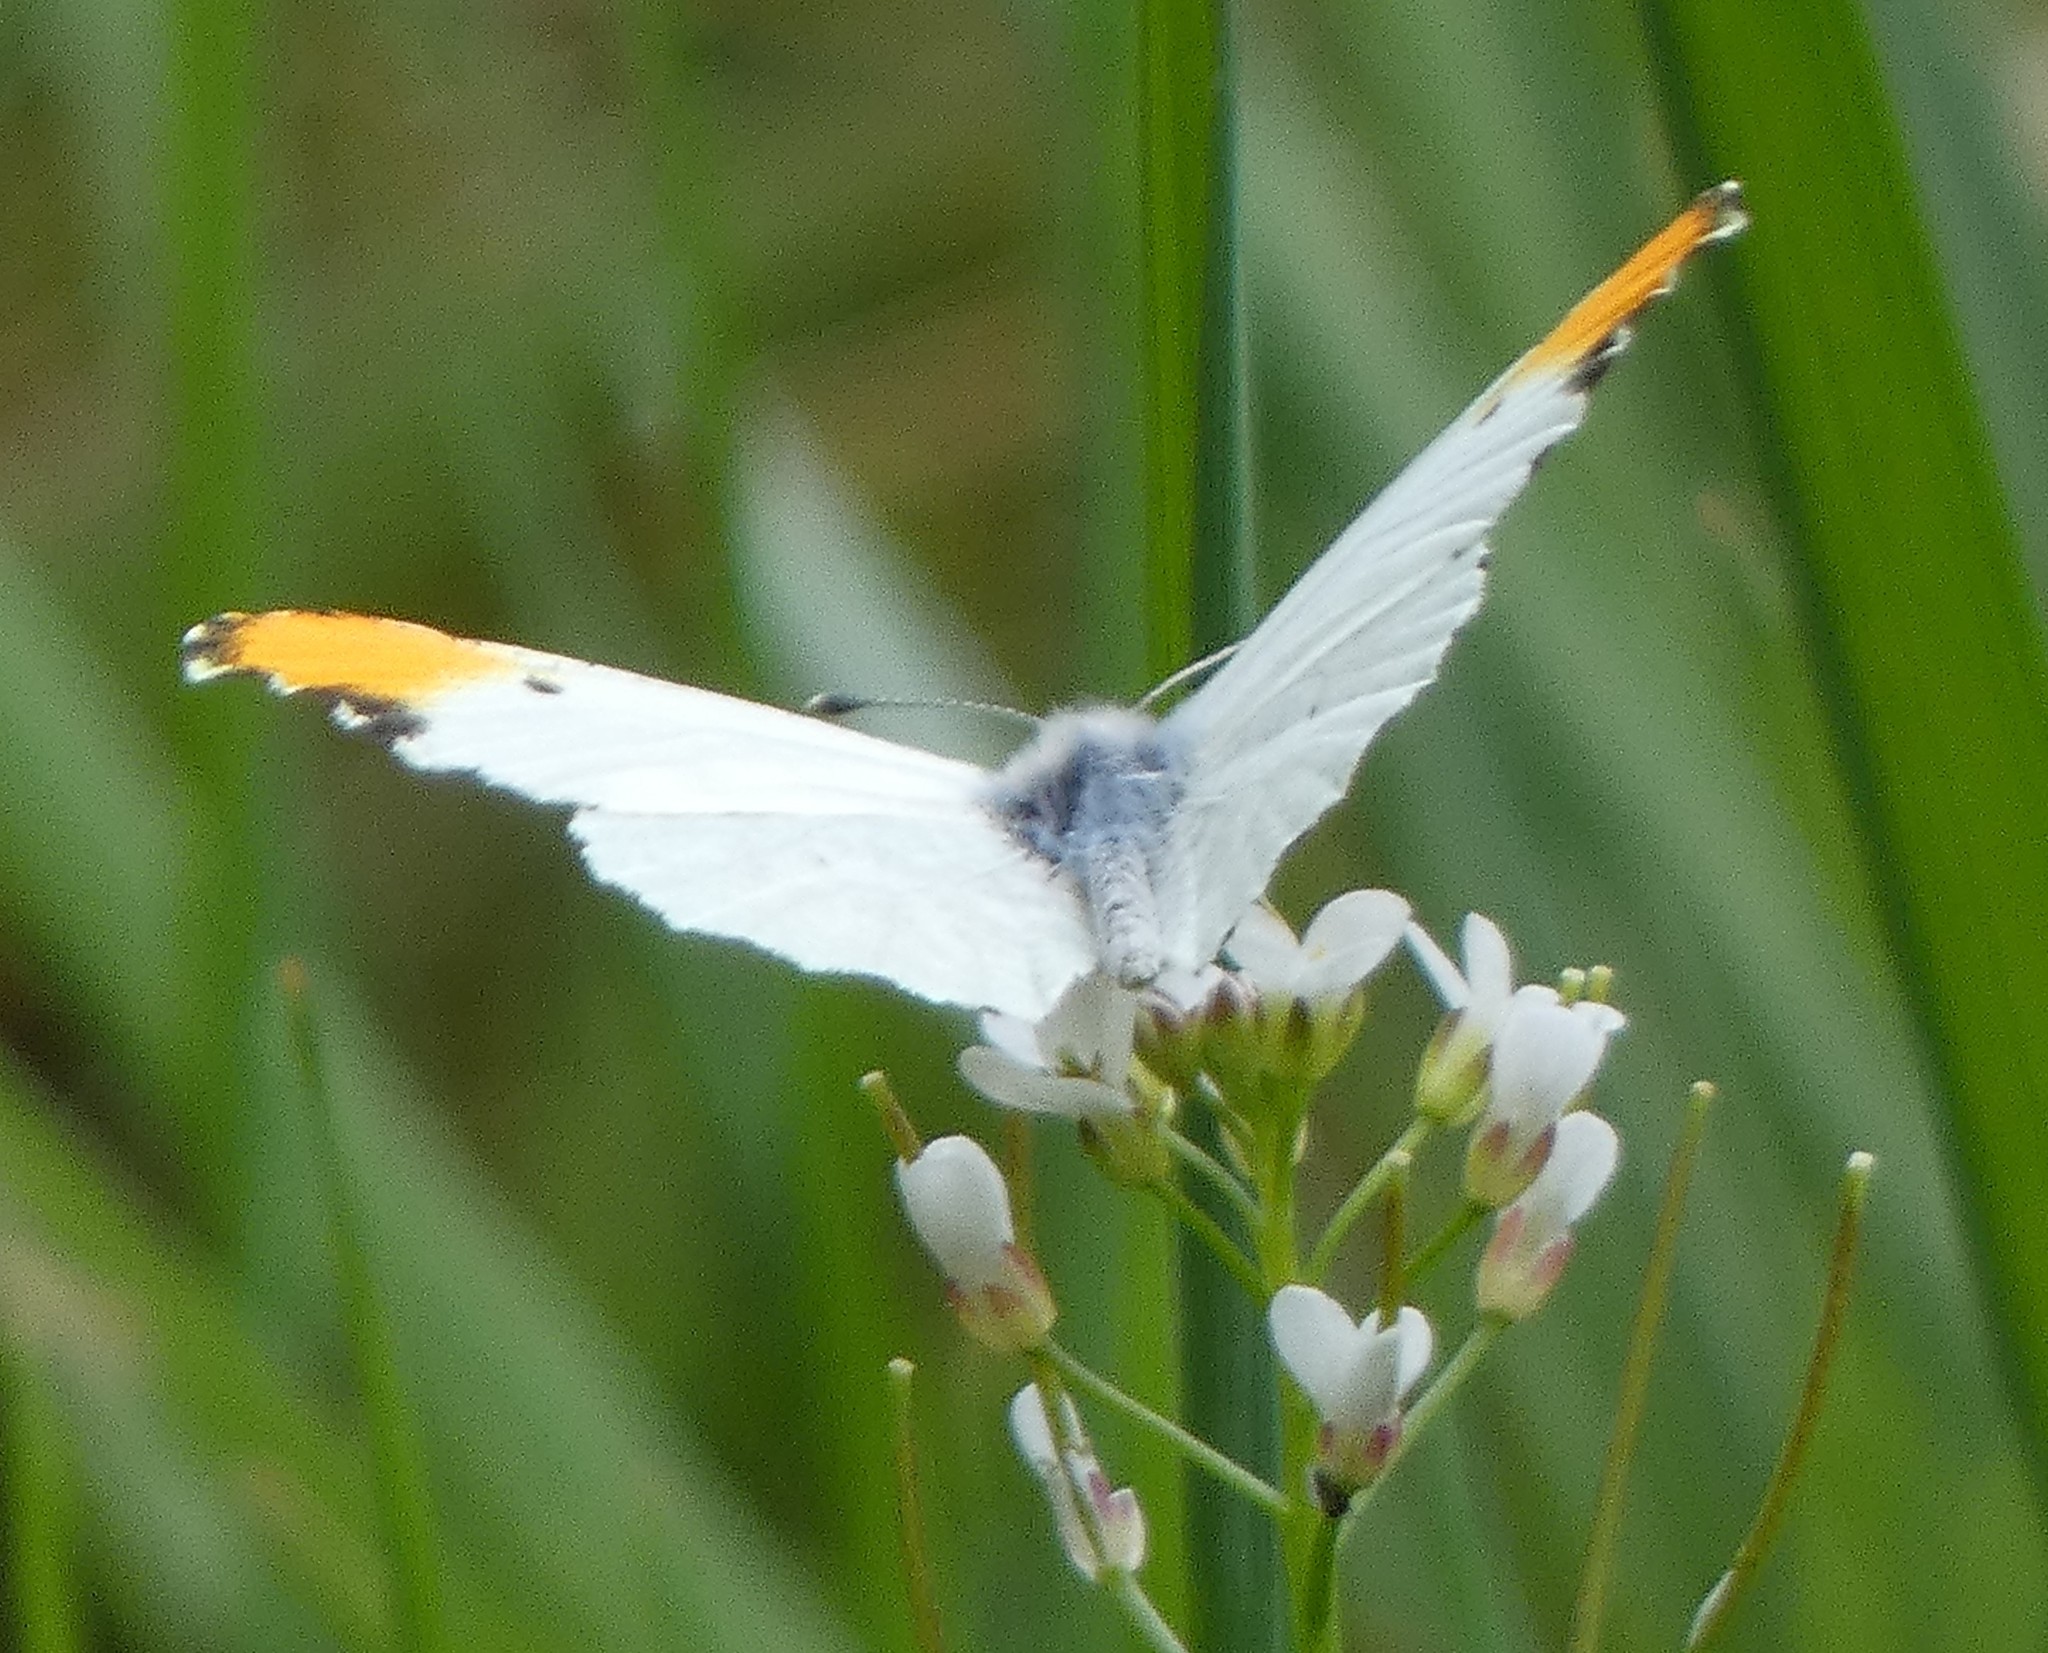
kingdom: Animalia
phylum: Arthropoda
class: Insecta
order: Lepidoptera
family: Pieridae
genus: Anthocharis
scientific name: Anthocharis midea
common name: Falcate orangetip
